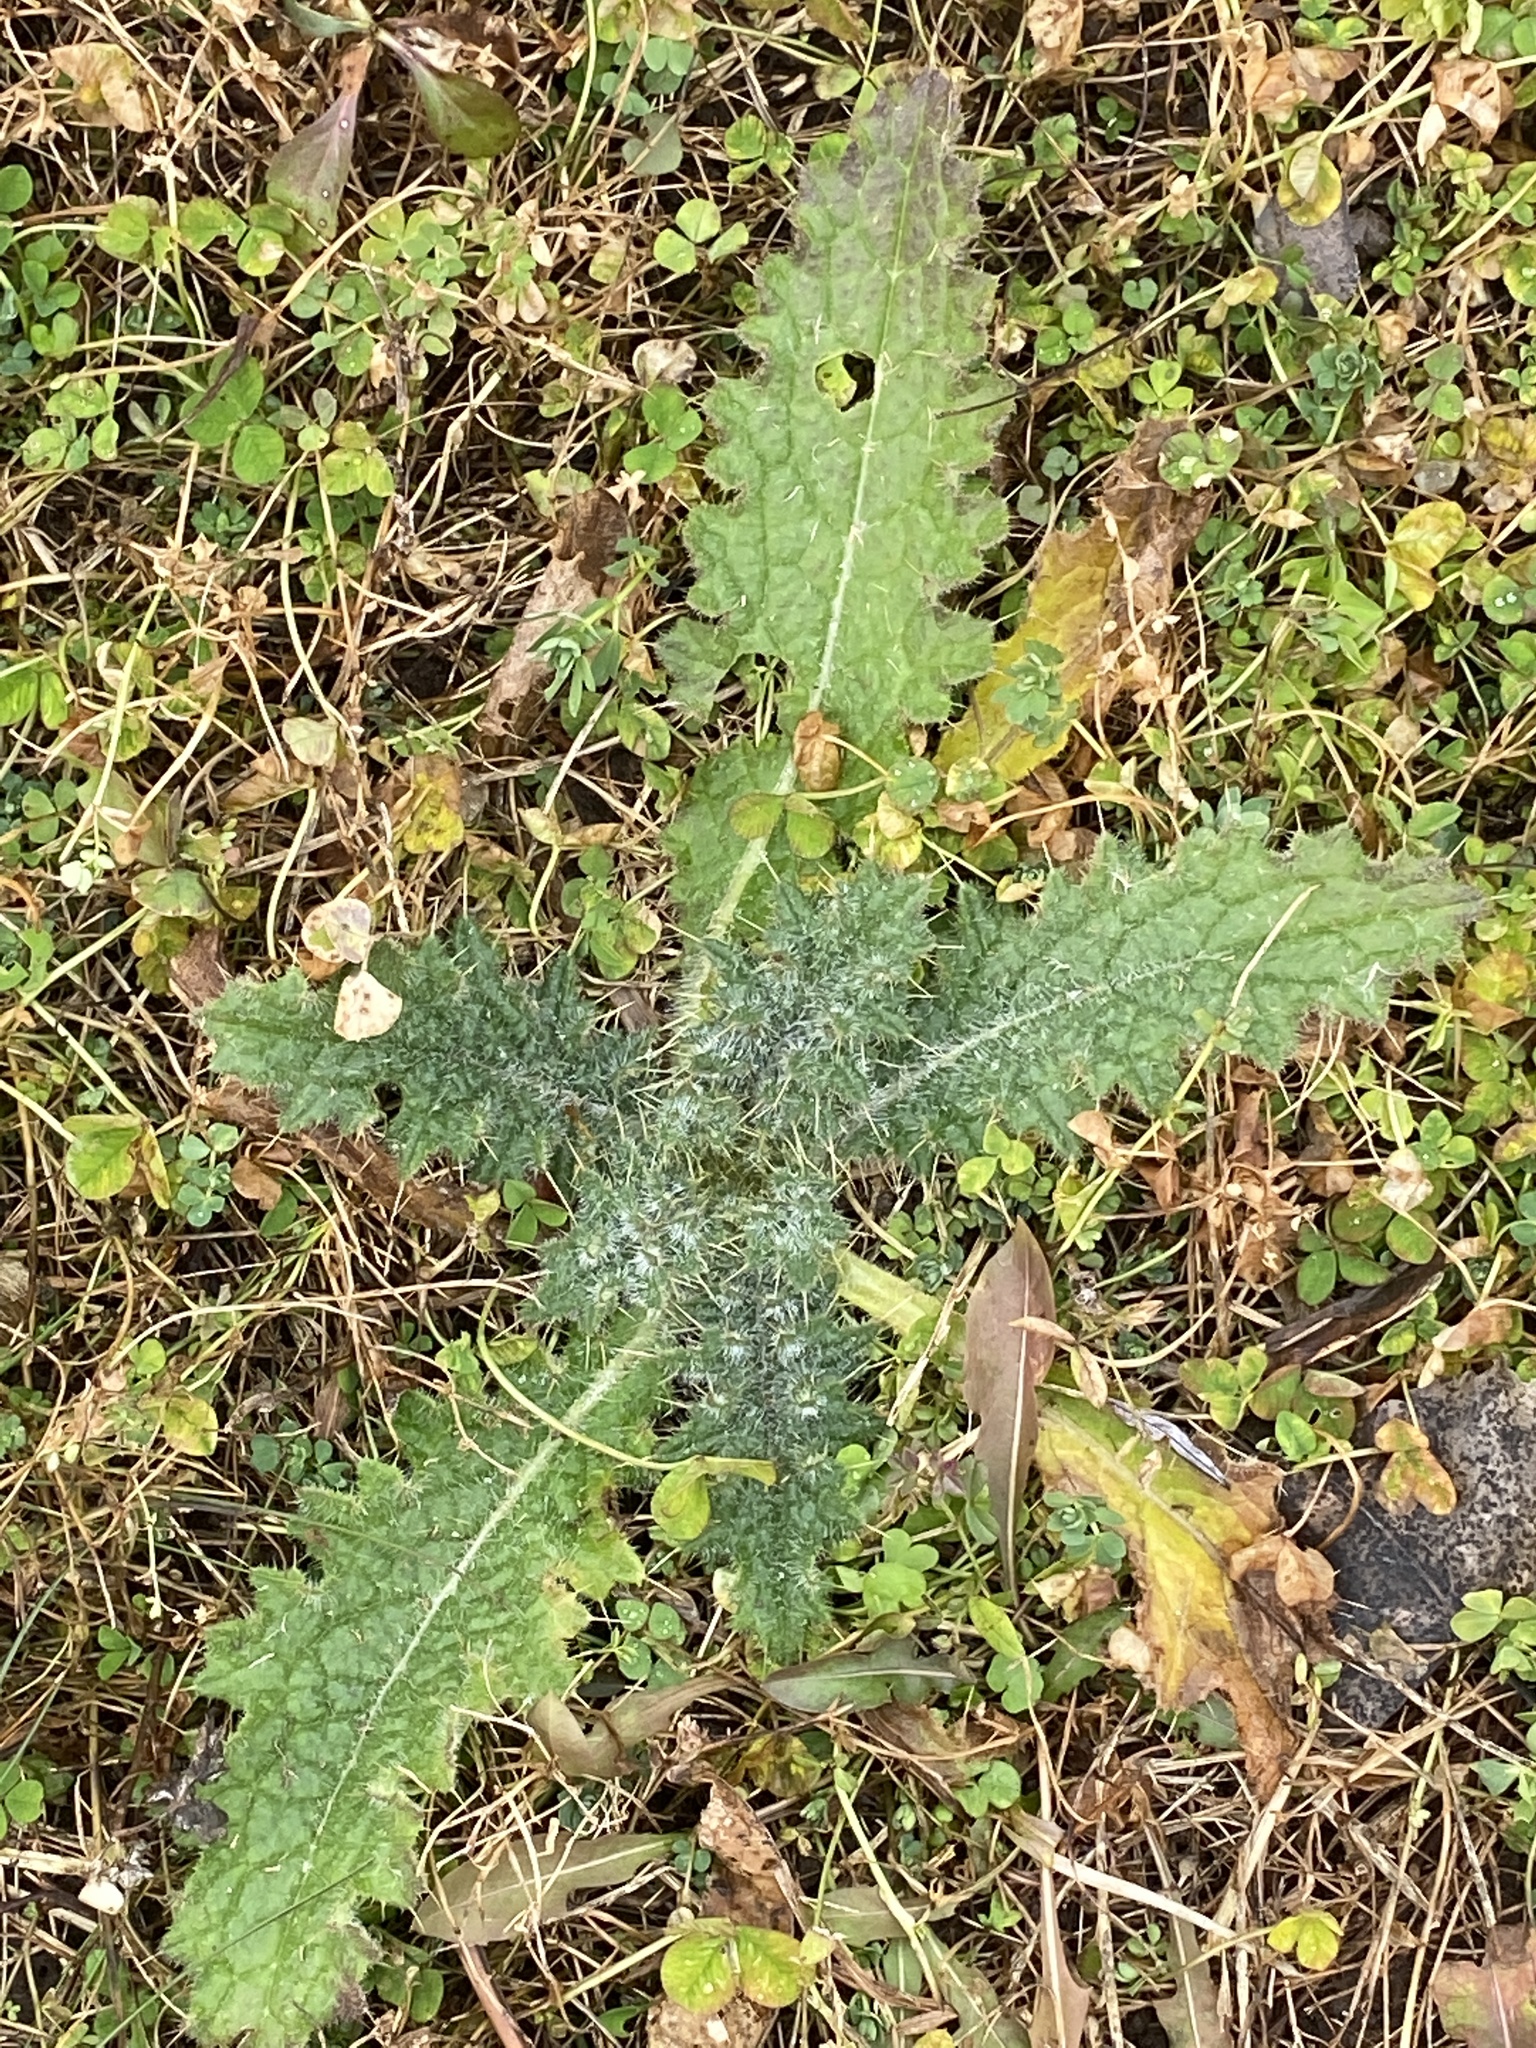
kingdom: Plantae
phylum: Tracheophyta
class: Magnoliopsida
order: Asterales
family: Asteraceae
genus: Cirsium
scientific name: Cirsium vulgare
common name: Bull thistle
